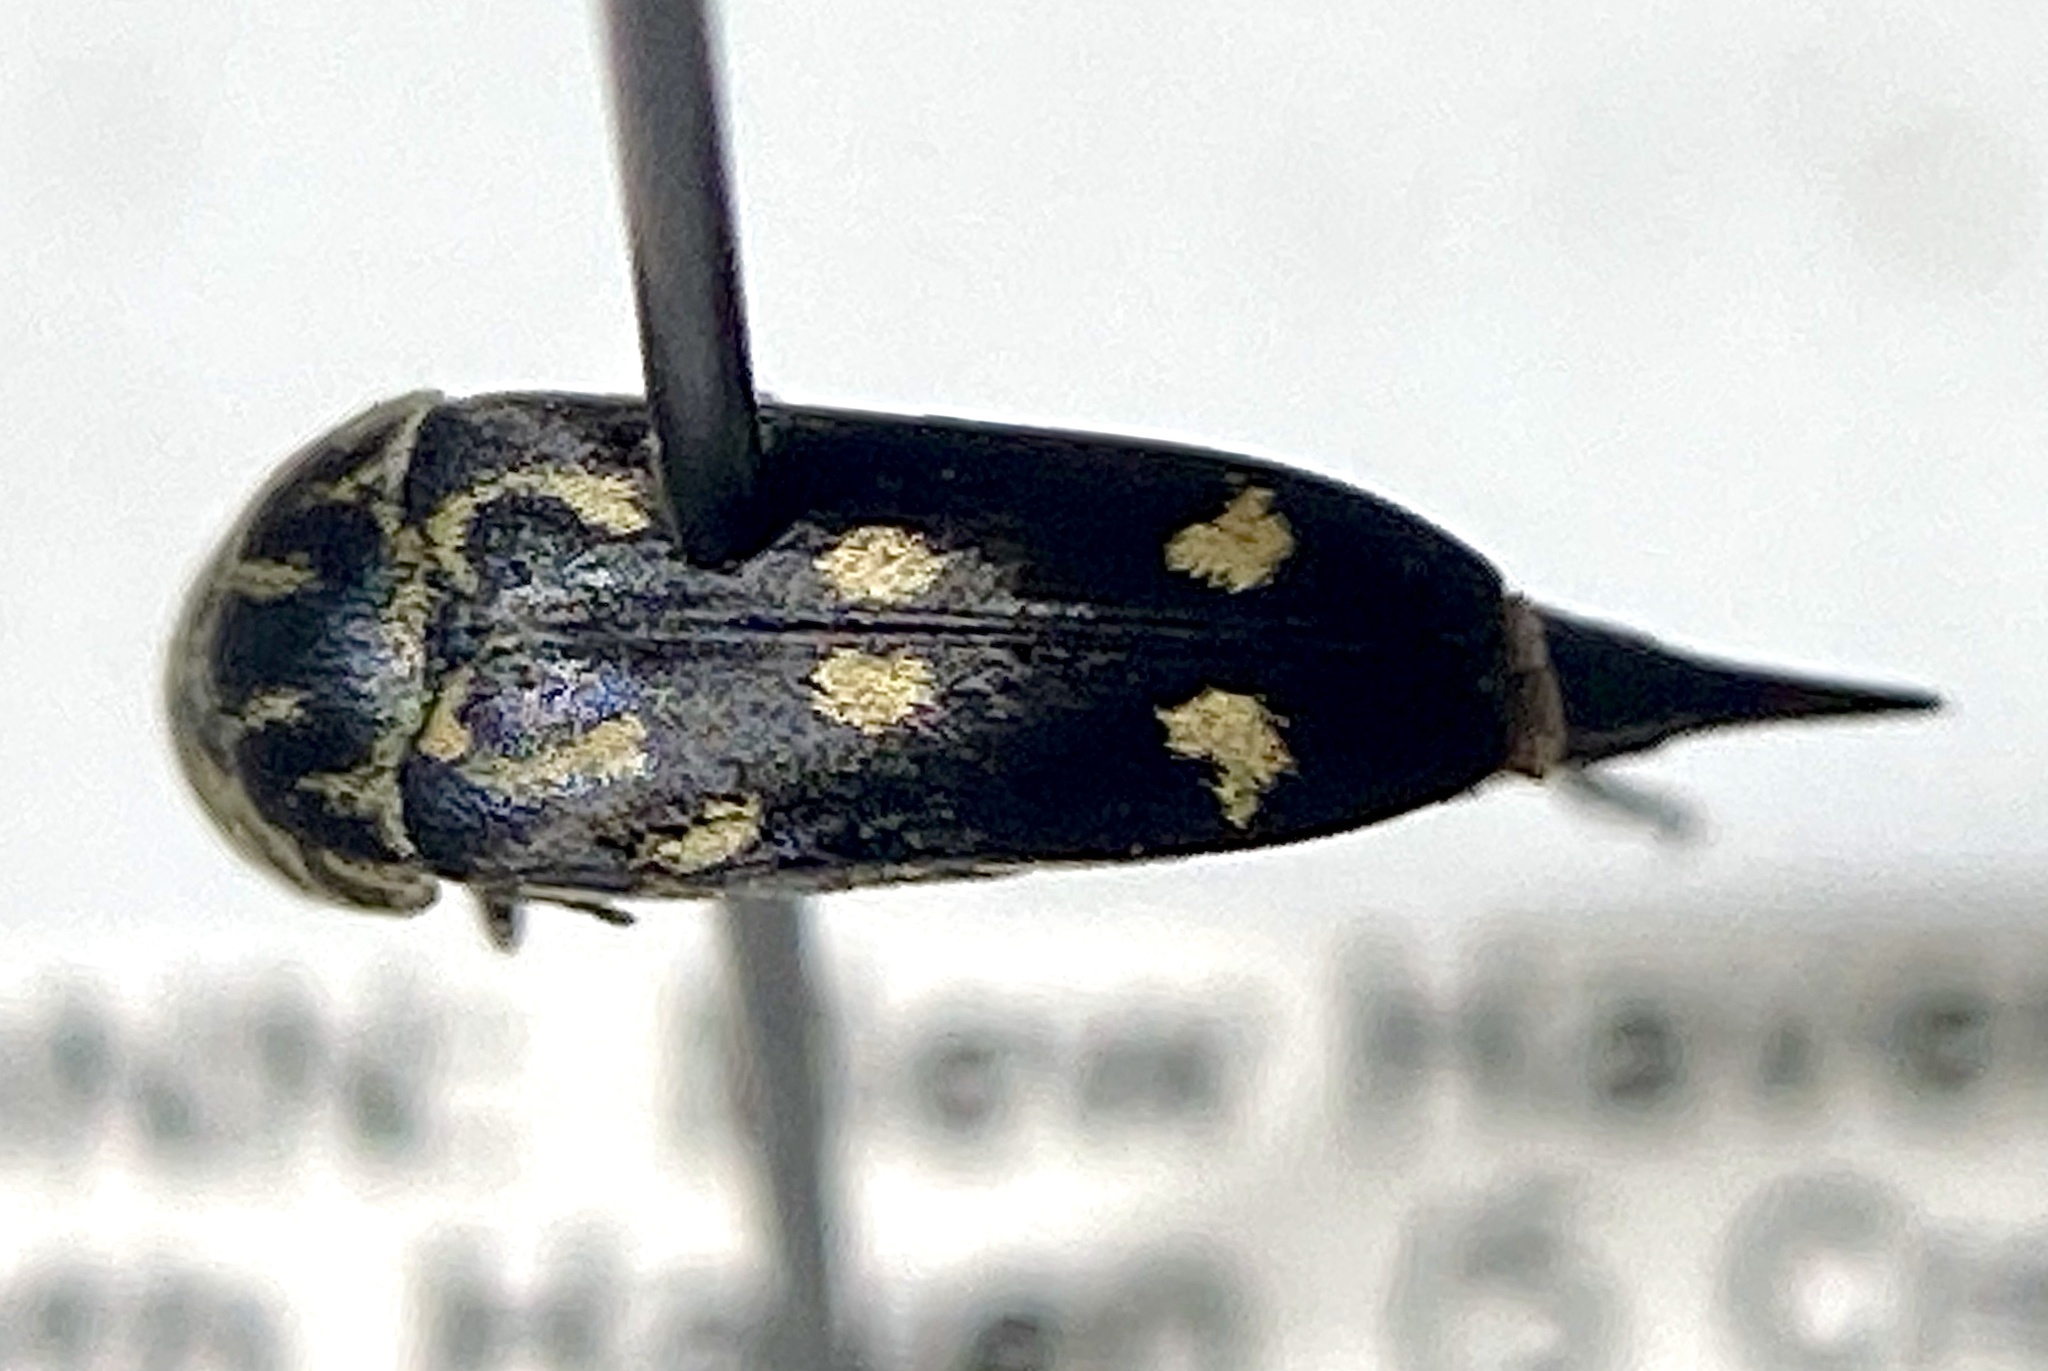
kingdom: Animalia
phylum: Arthropoda
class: Insecta
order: Coleoptera
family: Mordellidae
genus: Hoshihananomia
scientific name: Hoshihananomia octopunctata
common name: Eight-spotted tumbling flower beetle
